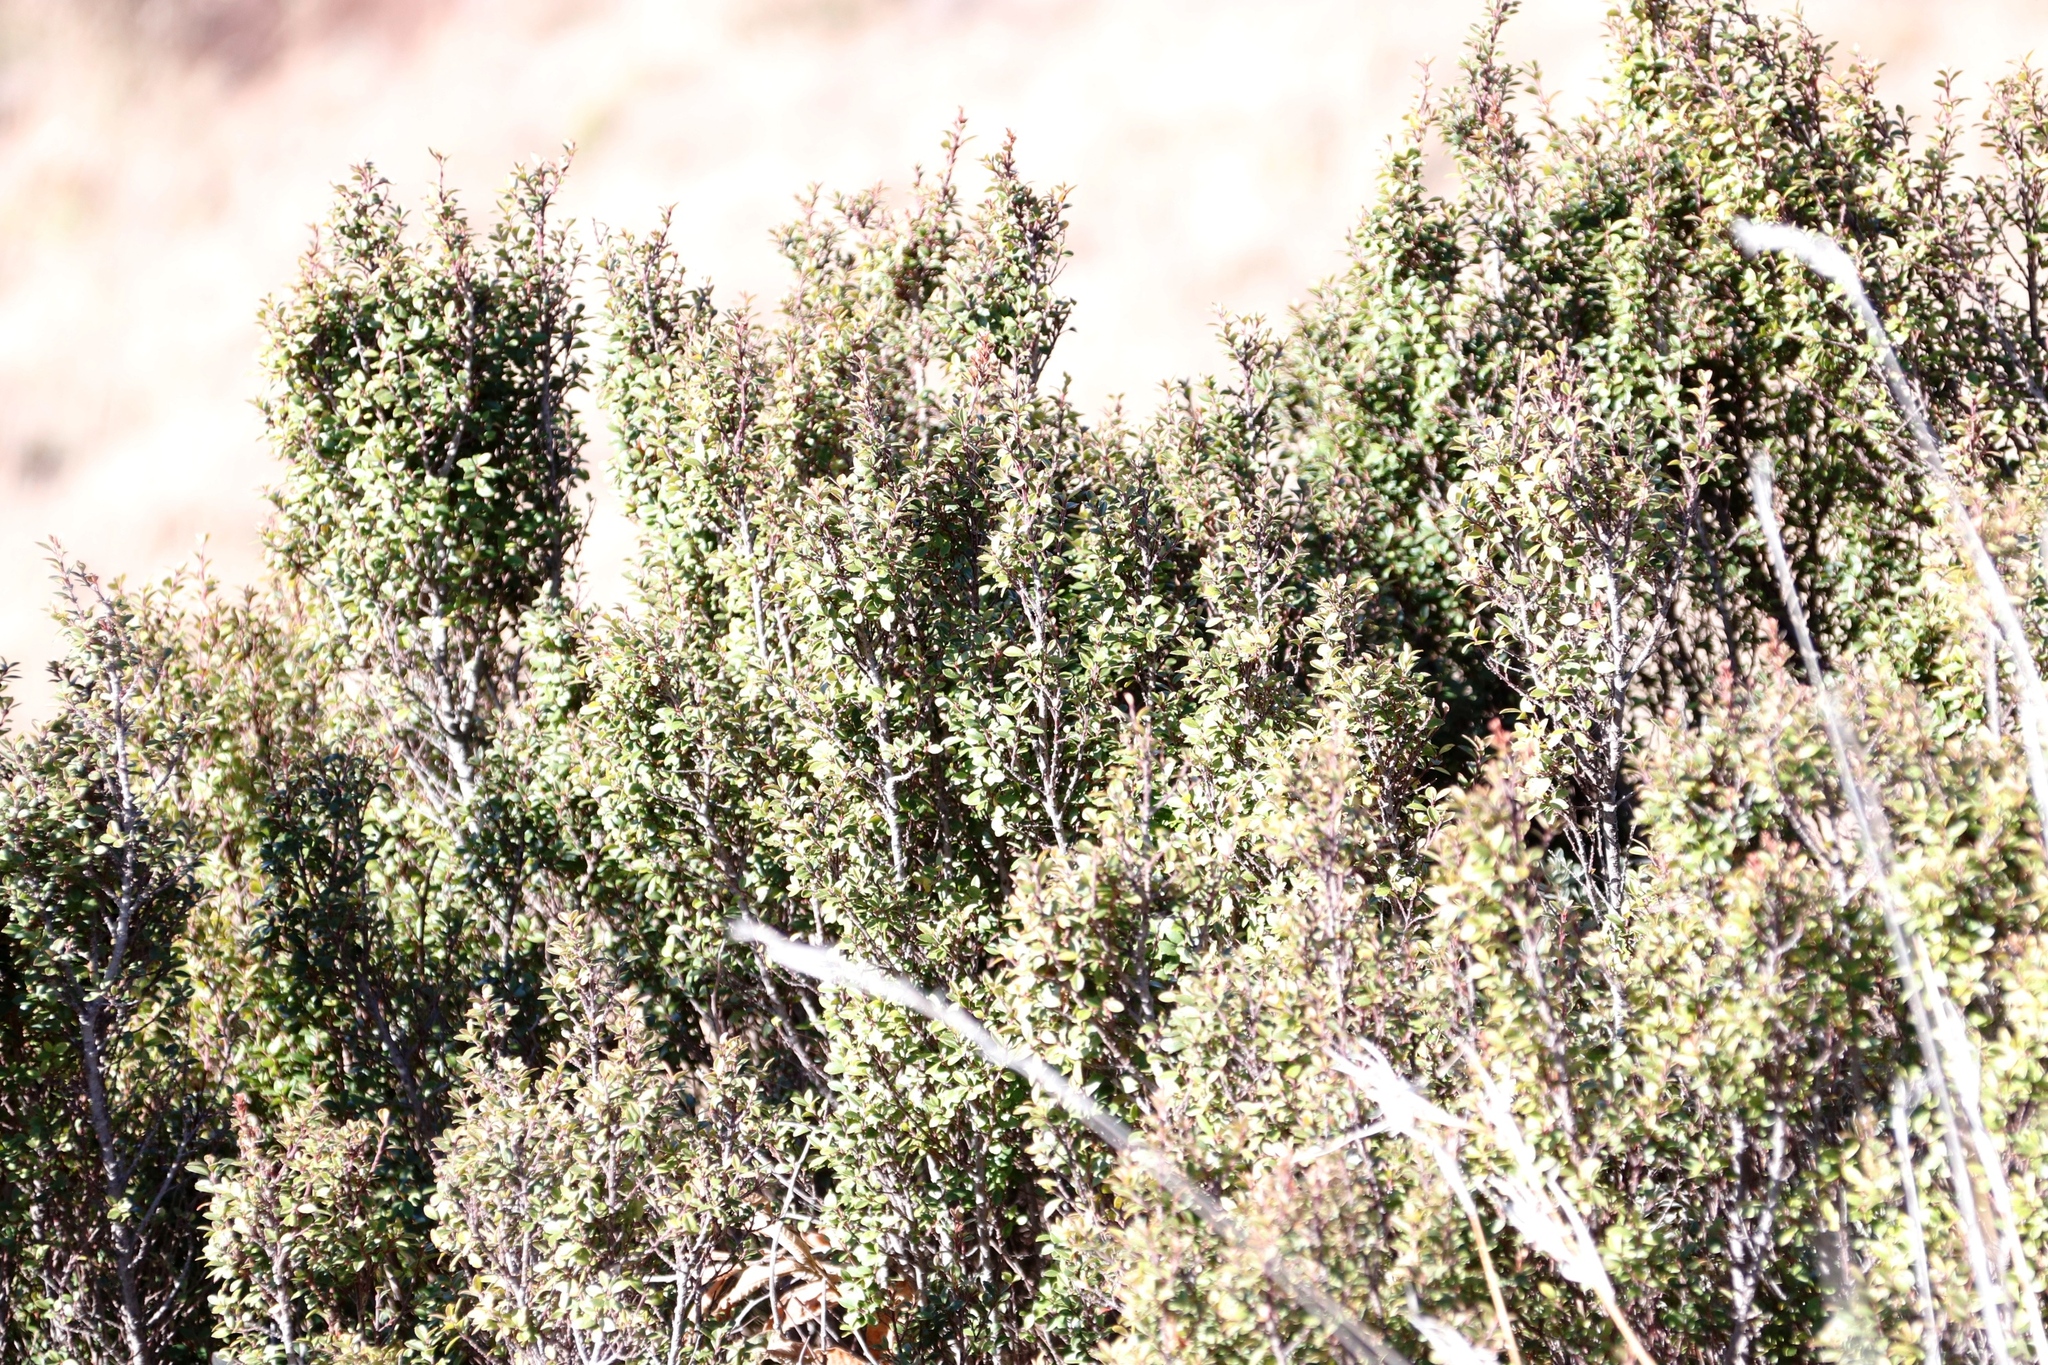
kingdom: Plantae
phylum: Tracheophyta
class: Magnoliopsida
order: Ericales
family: Primulaceae
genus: Myrsine
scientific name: Myrsine africana
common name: African-boxwood
